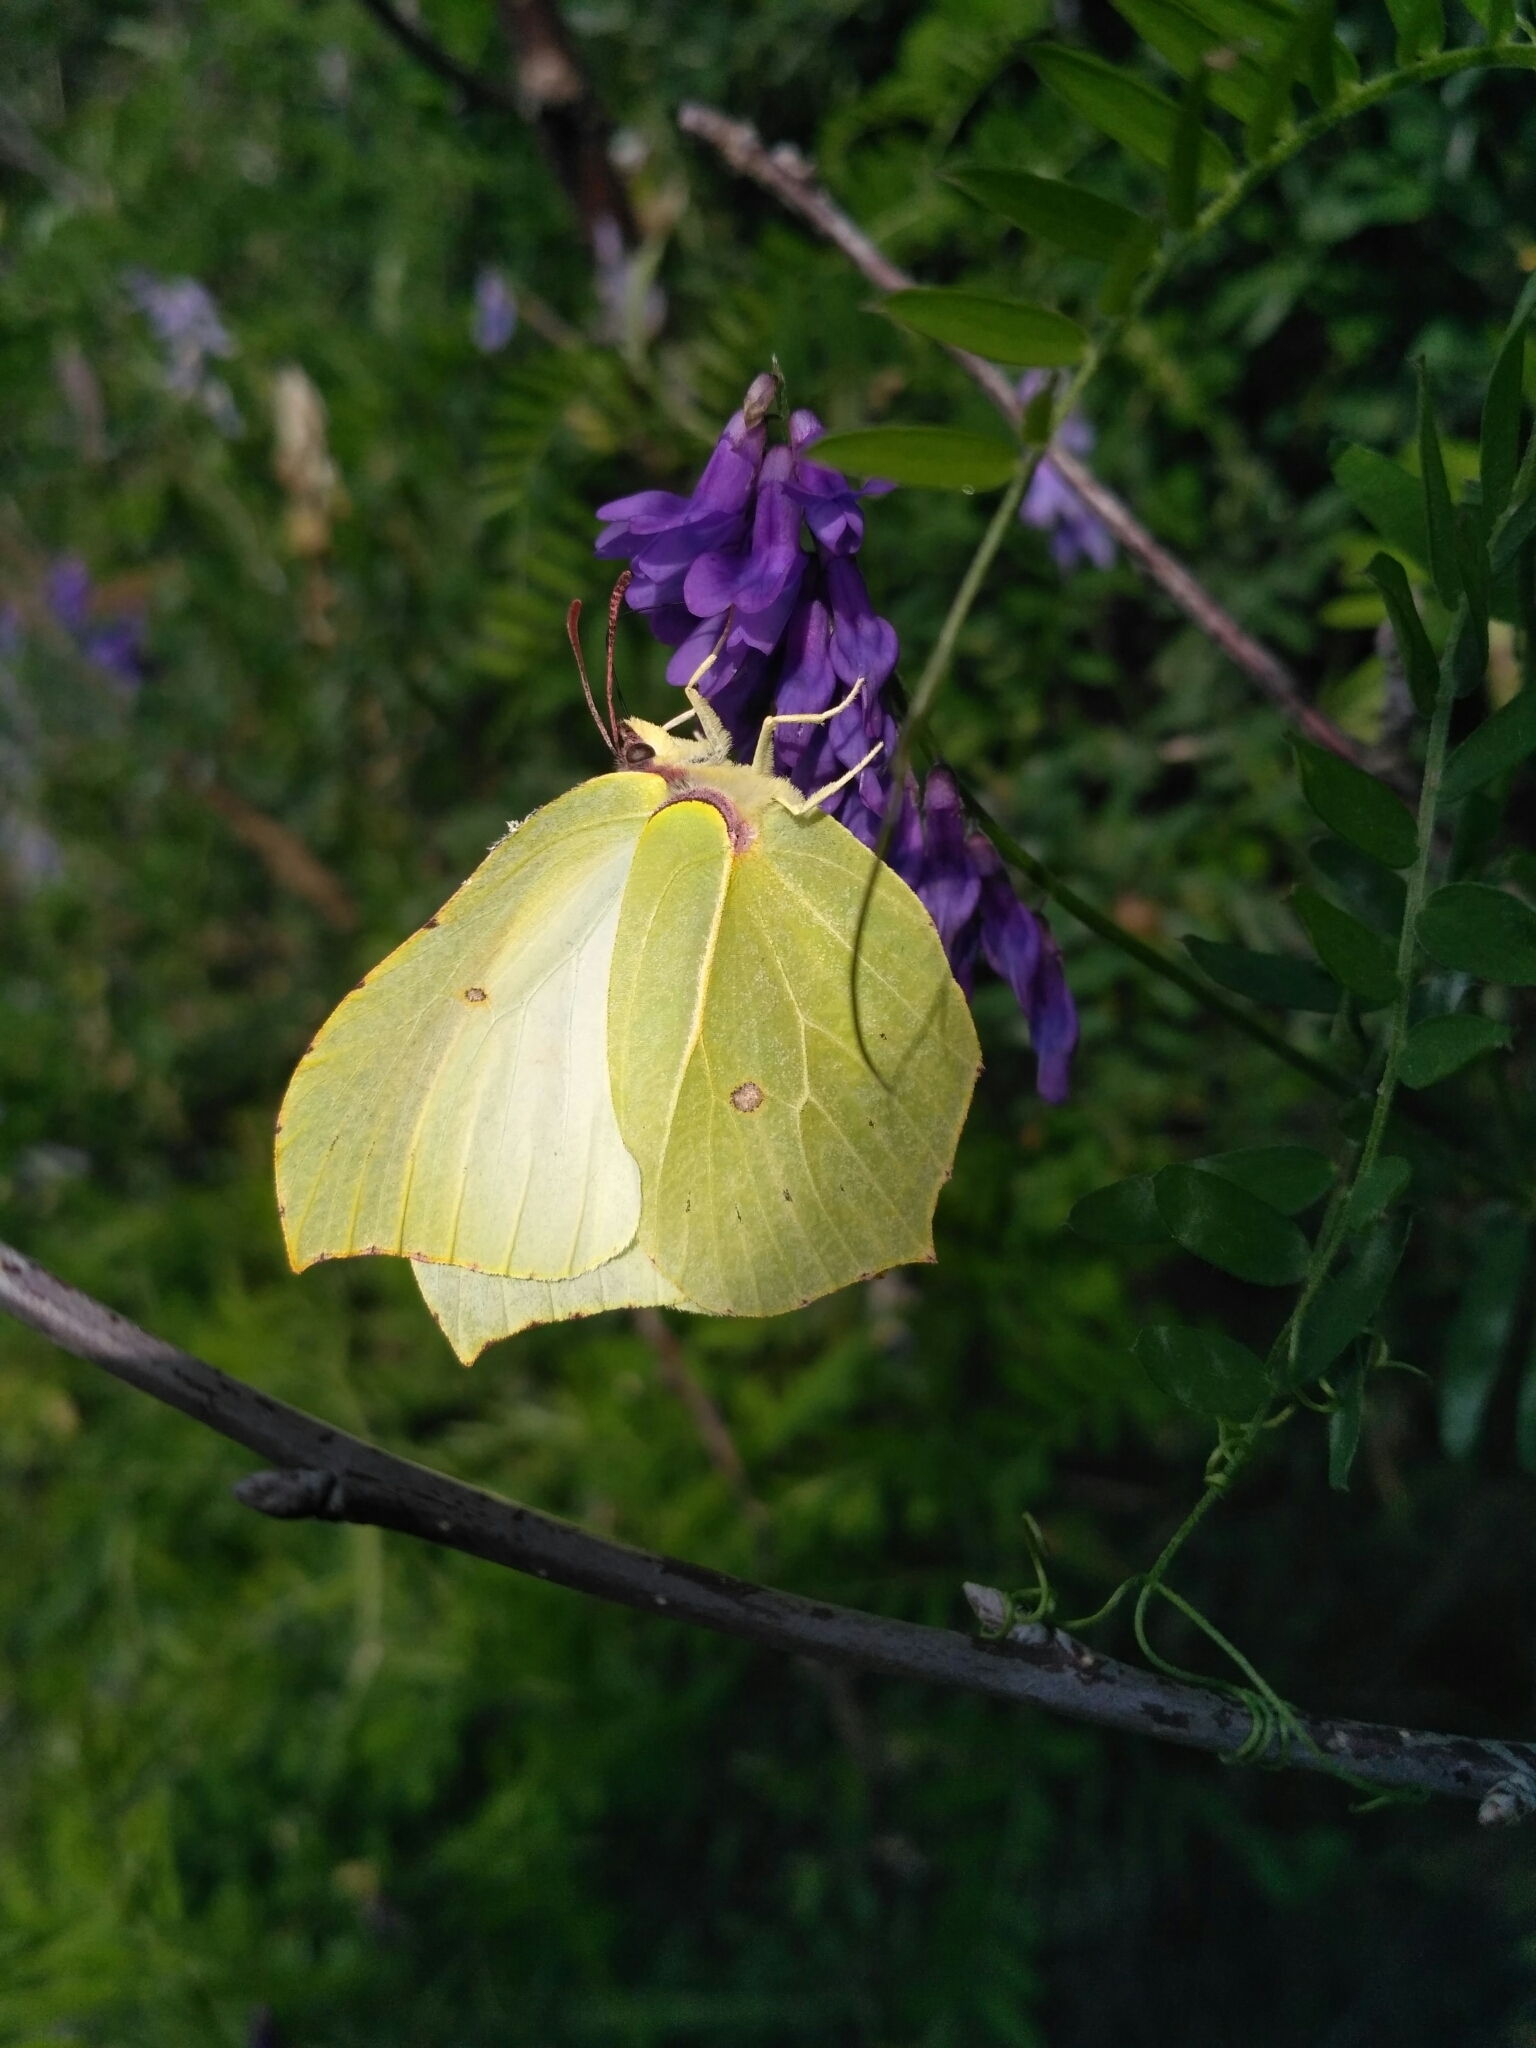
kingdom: Animalia
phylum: Arthropoda
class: Insecta
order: Lepidoptera
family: Pieridae
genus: Gonepteryx
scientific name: Gonepteryx rhamni
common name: Brimstone
